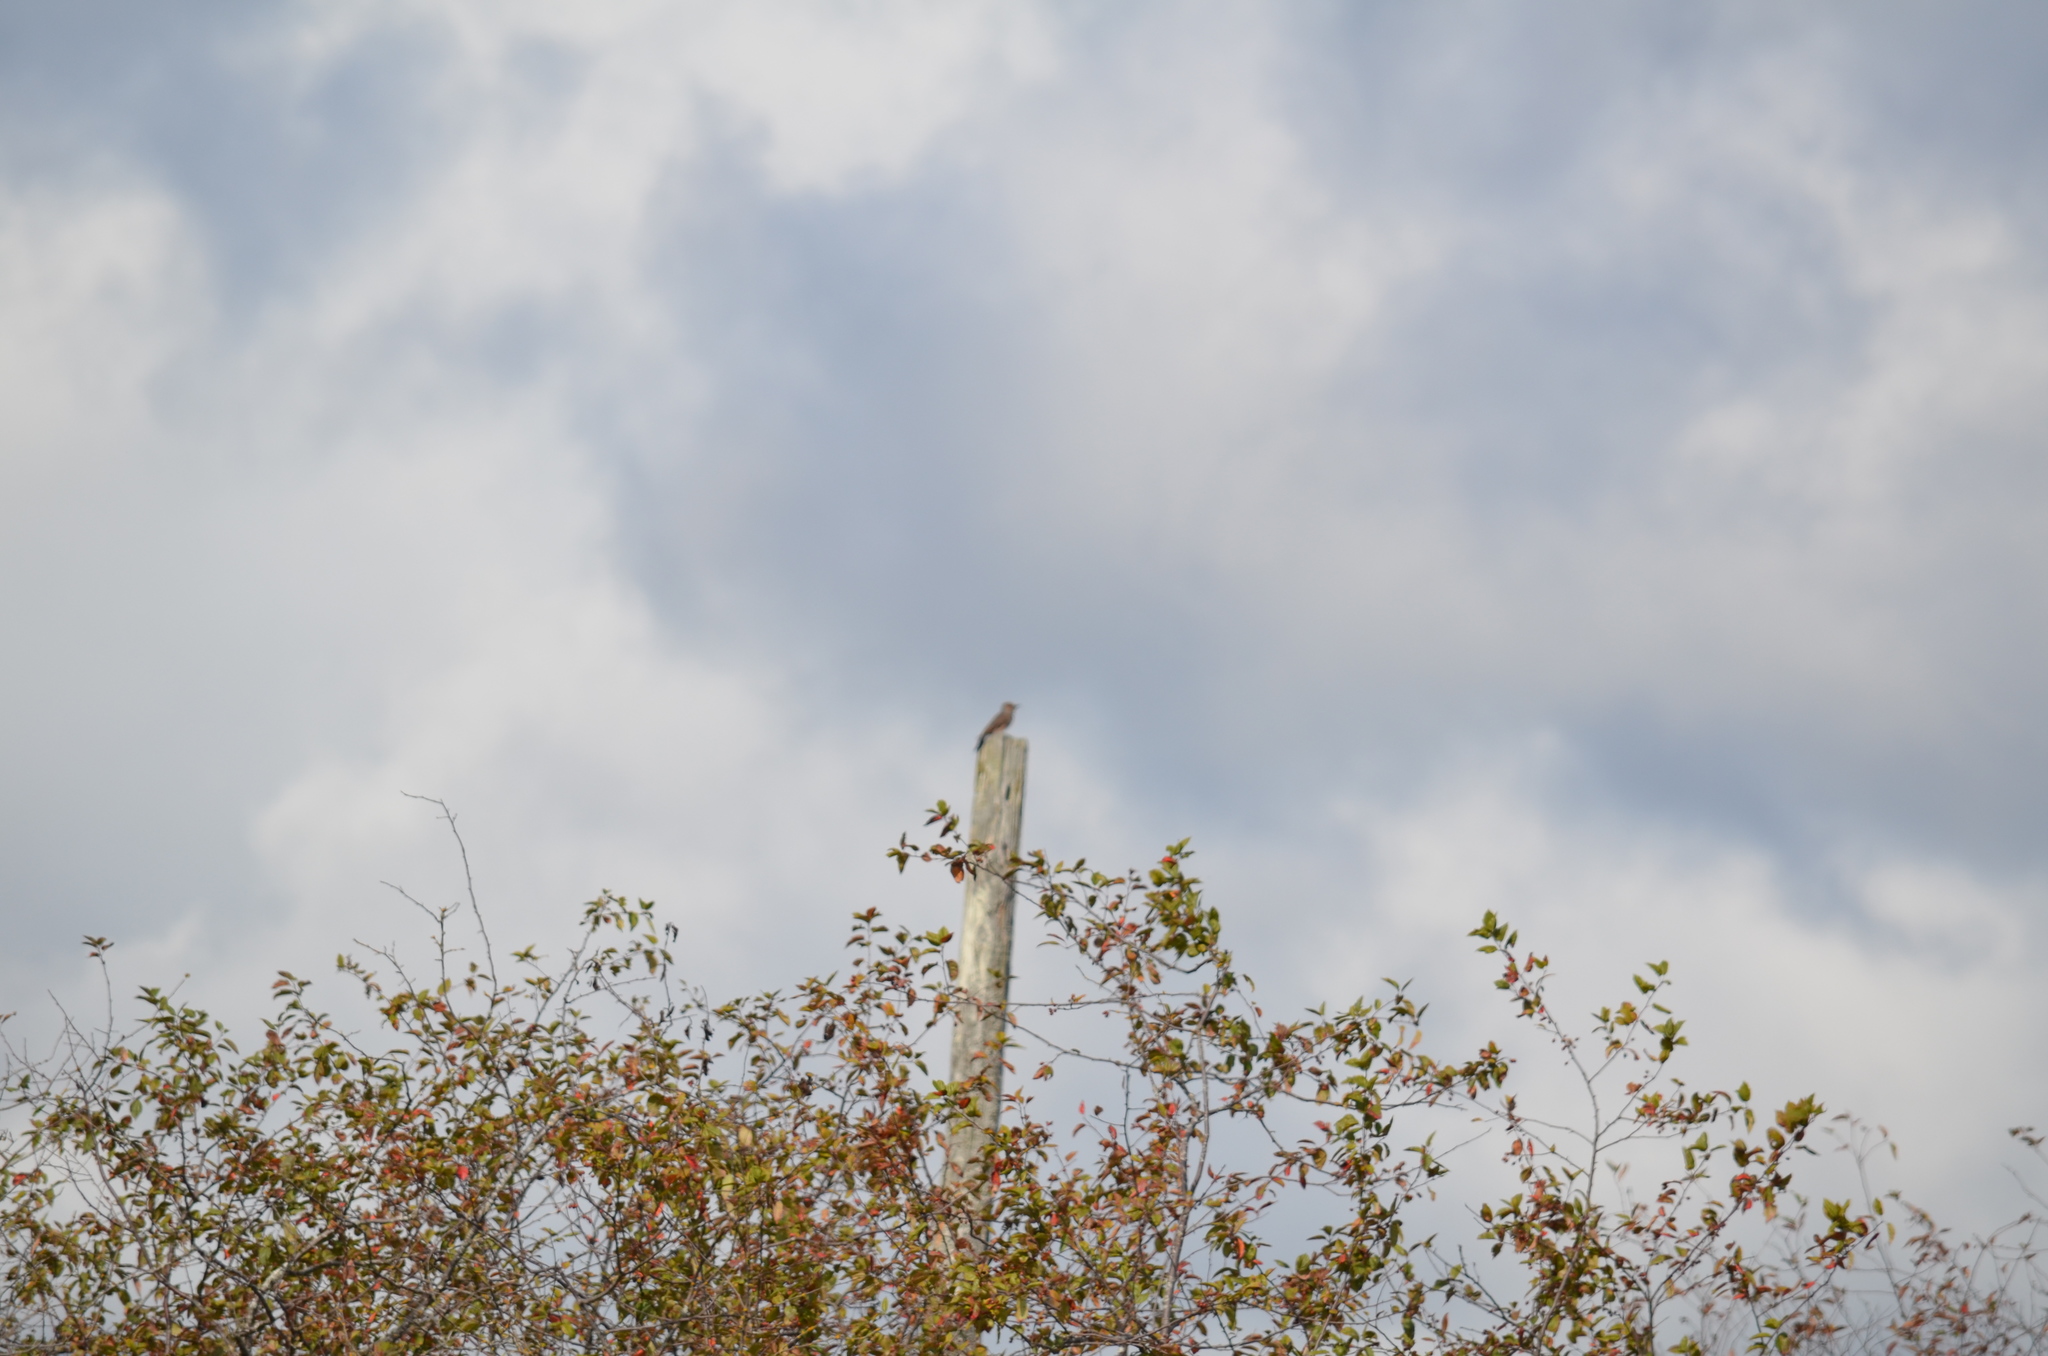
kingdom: Animalia
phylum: Chordata
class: Aves
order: Piciformes
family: Picidae
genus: Colaptes
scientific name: Colaptes auratus
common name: Northern flicker
